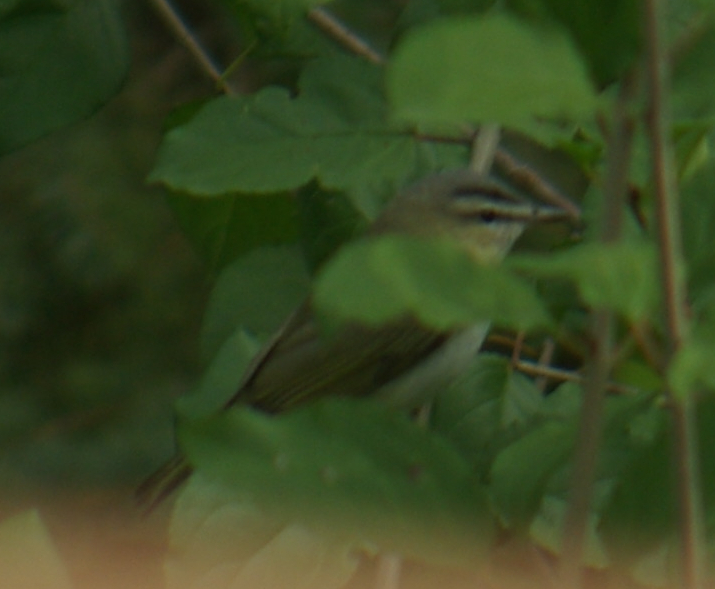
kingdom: Animalia
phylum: Chordata
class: Aves
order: Passeriformes
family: Vireonidae
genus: Vireo
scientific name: Vireo olivaceus
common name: Red-eyed vireo
